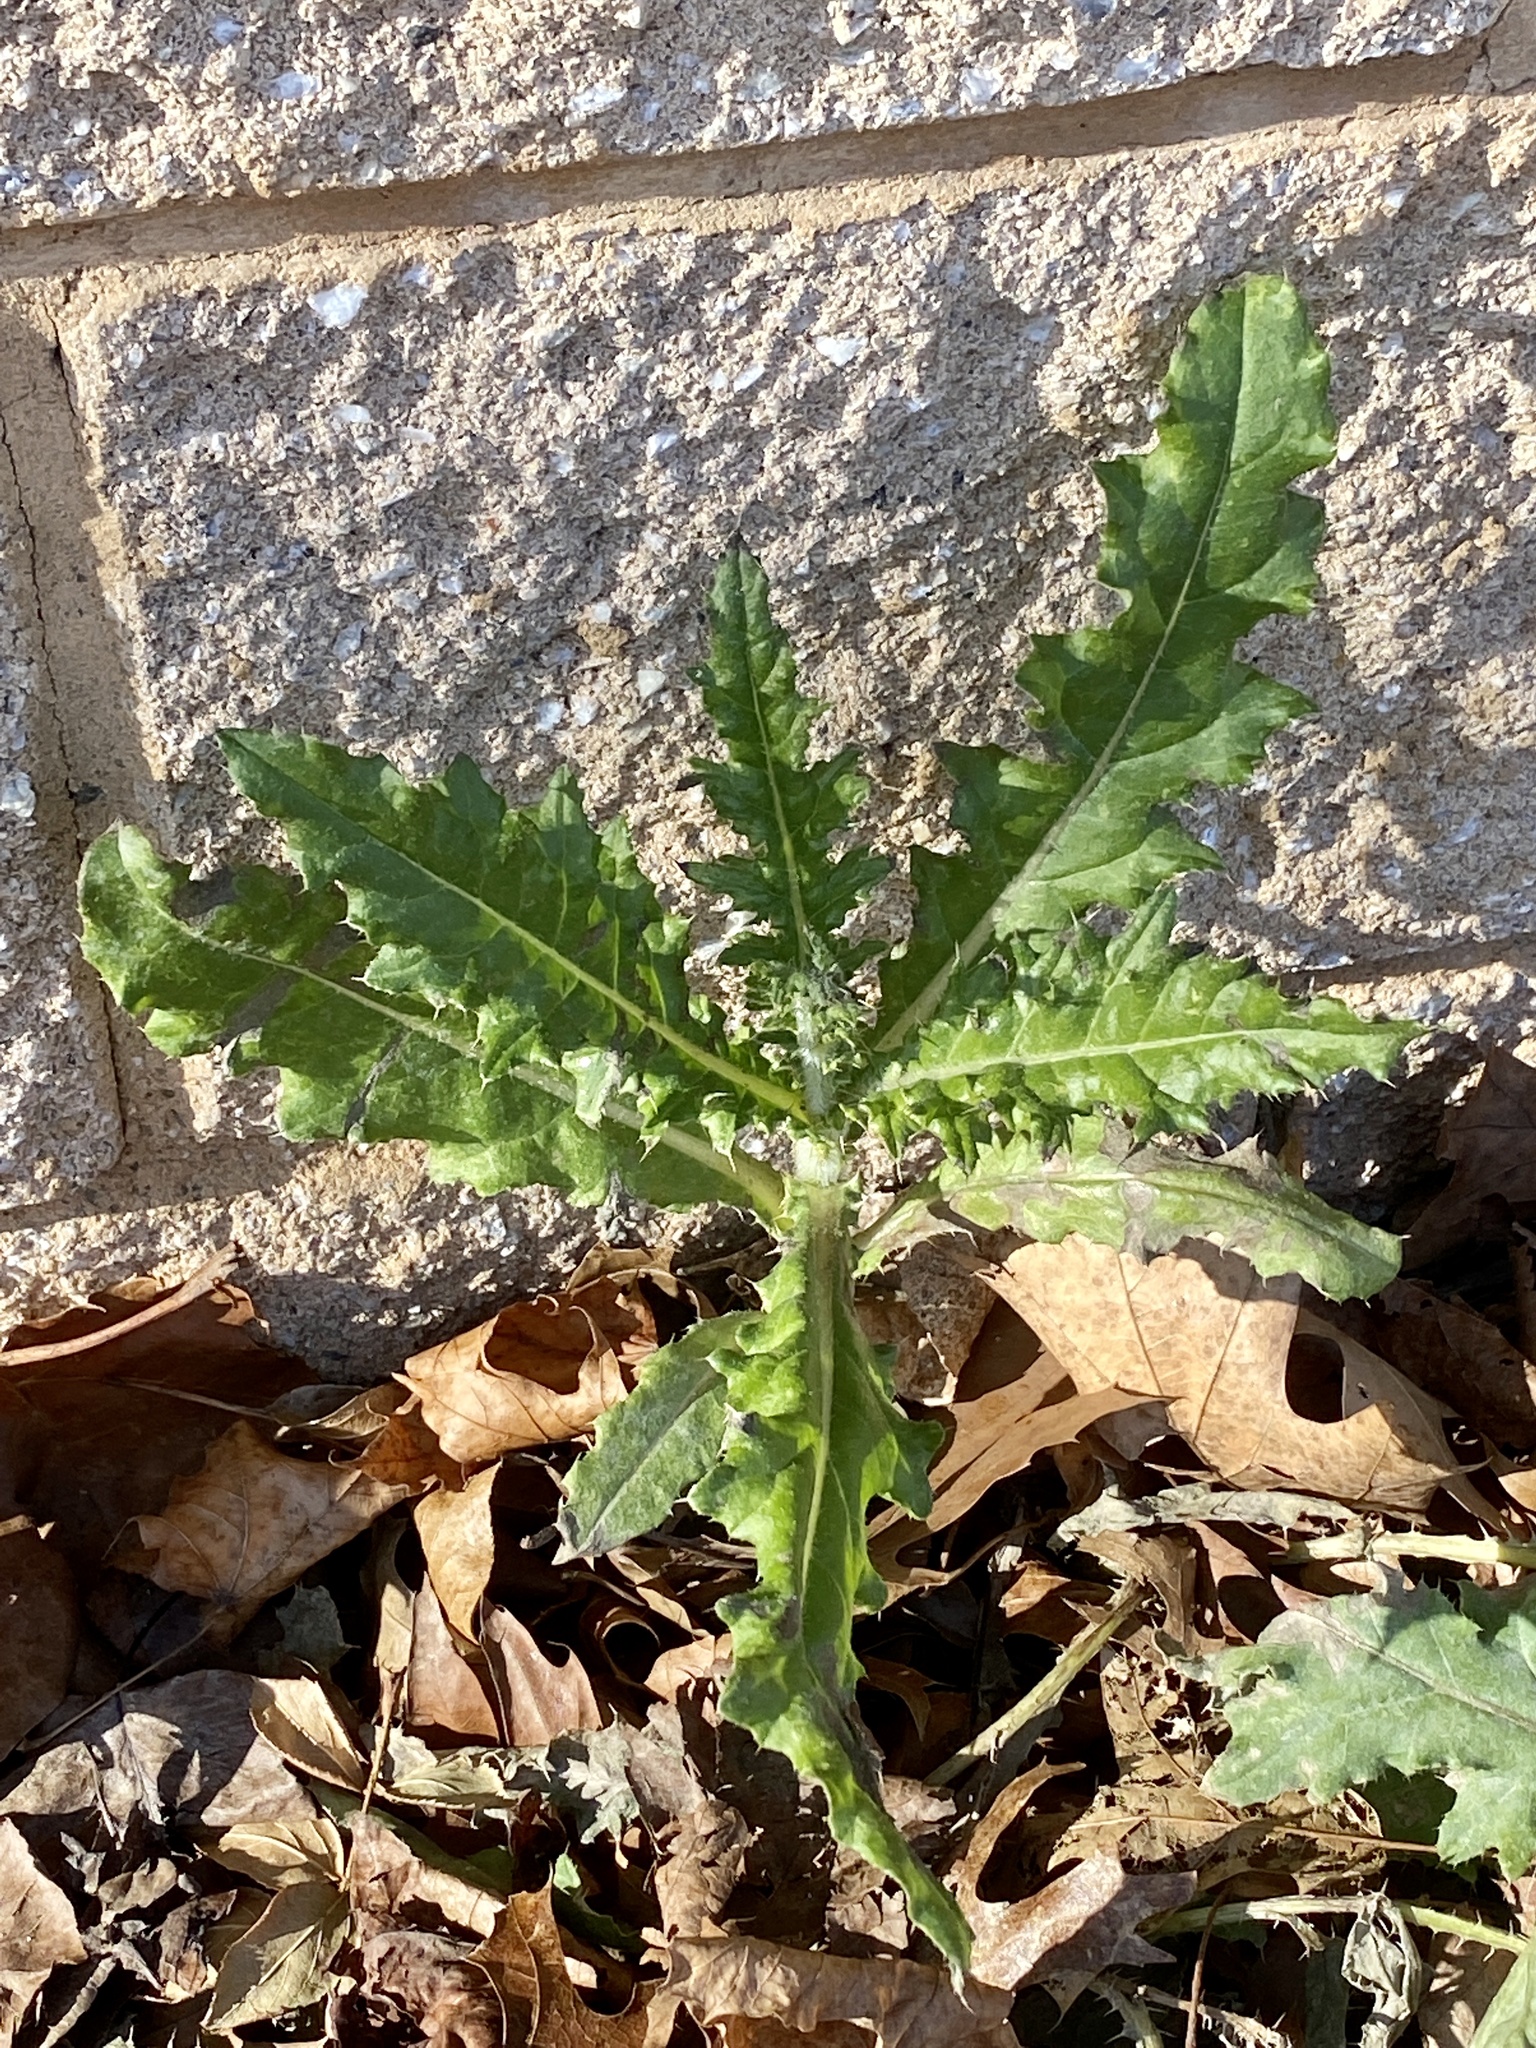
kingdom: Plantae
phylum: Tracheophyta
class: Magnoliopsida
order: Asterales
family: Asteraceae
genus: Cirsium
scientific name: Cirsium arvense
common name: Creeping thistle
